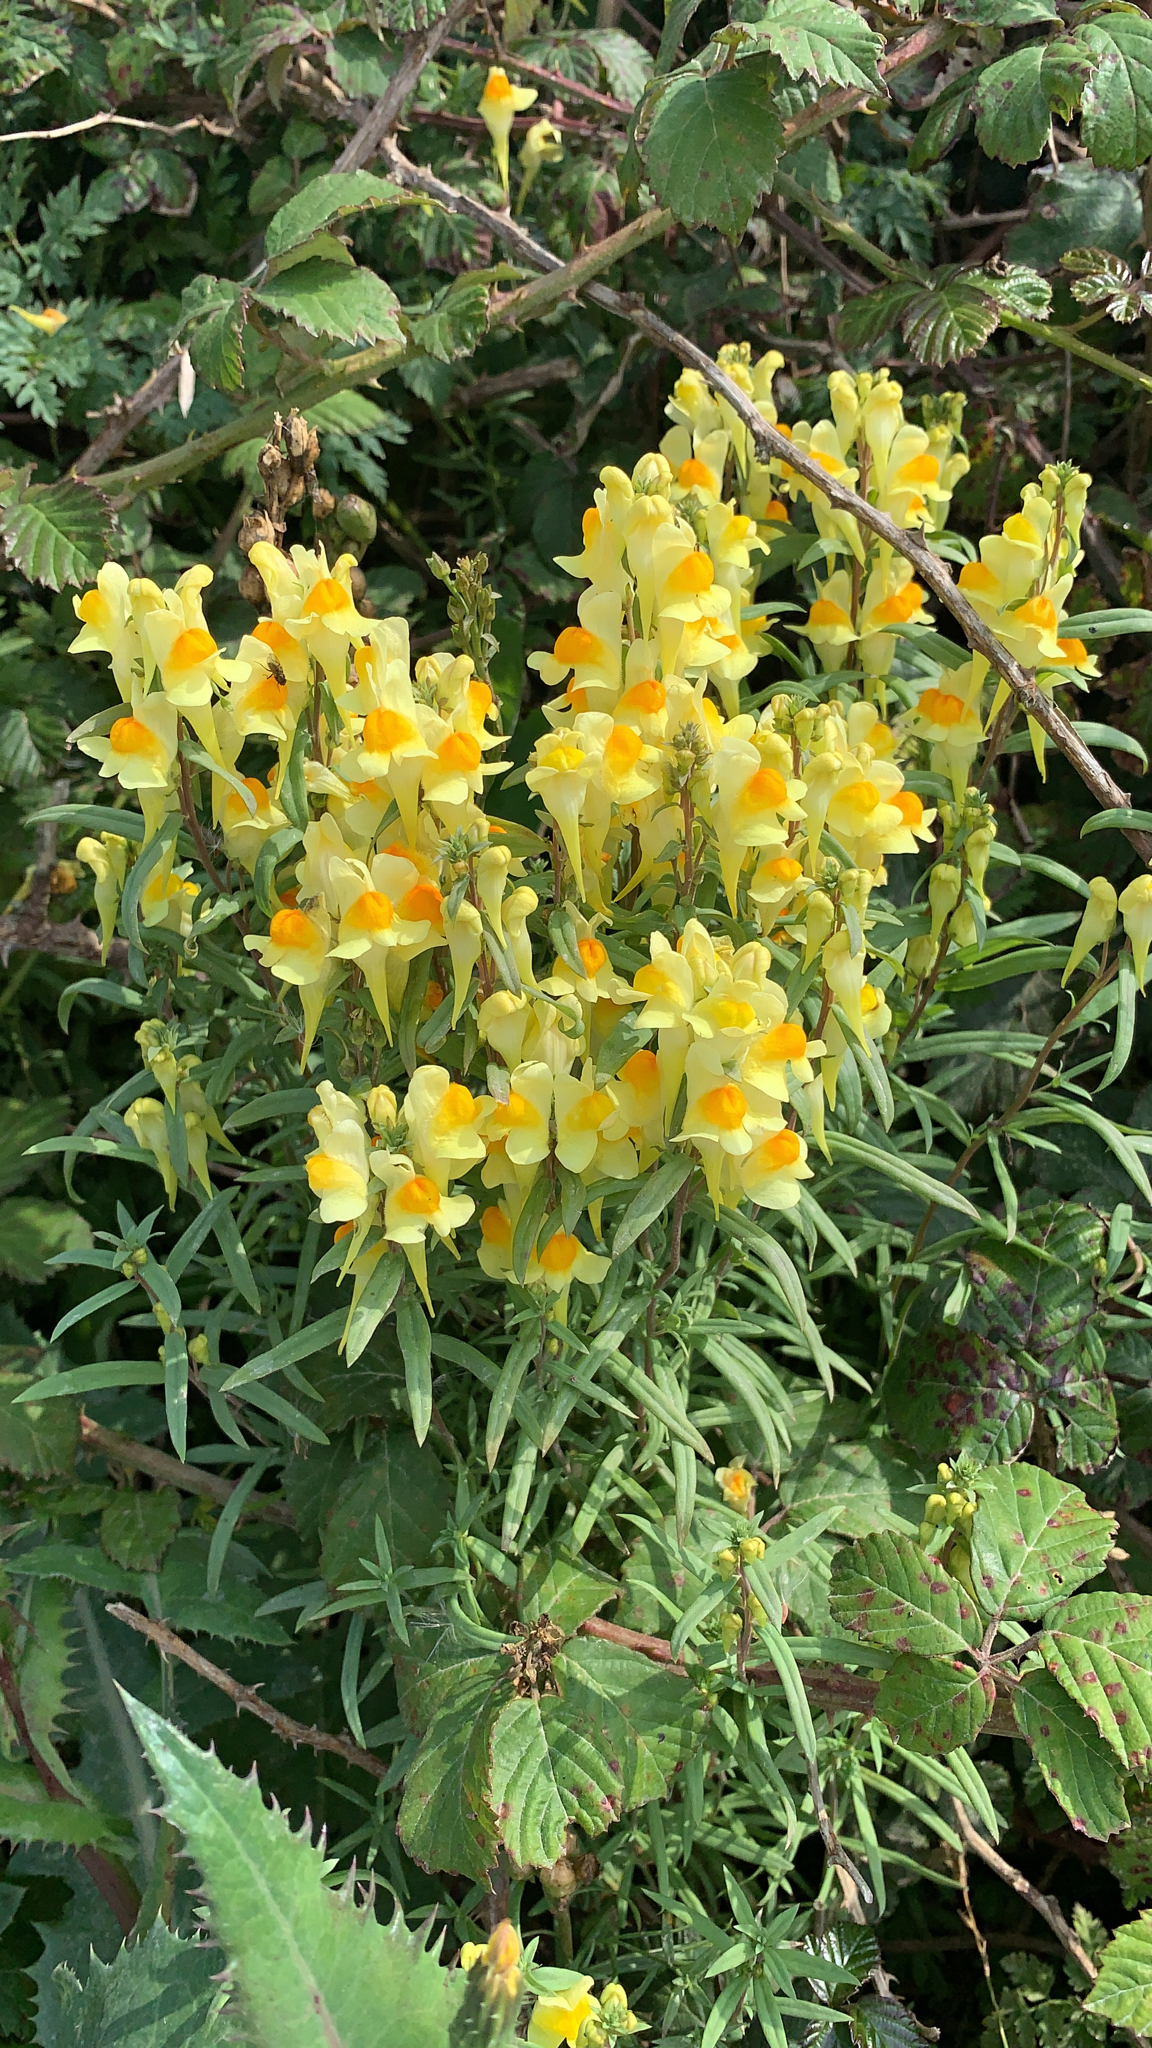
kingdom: Plantae
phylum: Tracheophyta
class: Magnoliopsida
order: Lamiales
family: Plantaginaceae
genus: Linaria
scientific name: Linaria vulgaris
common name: Butter and eggs
